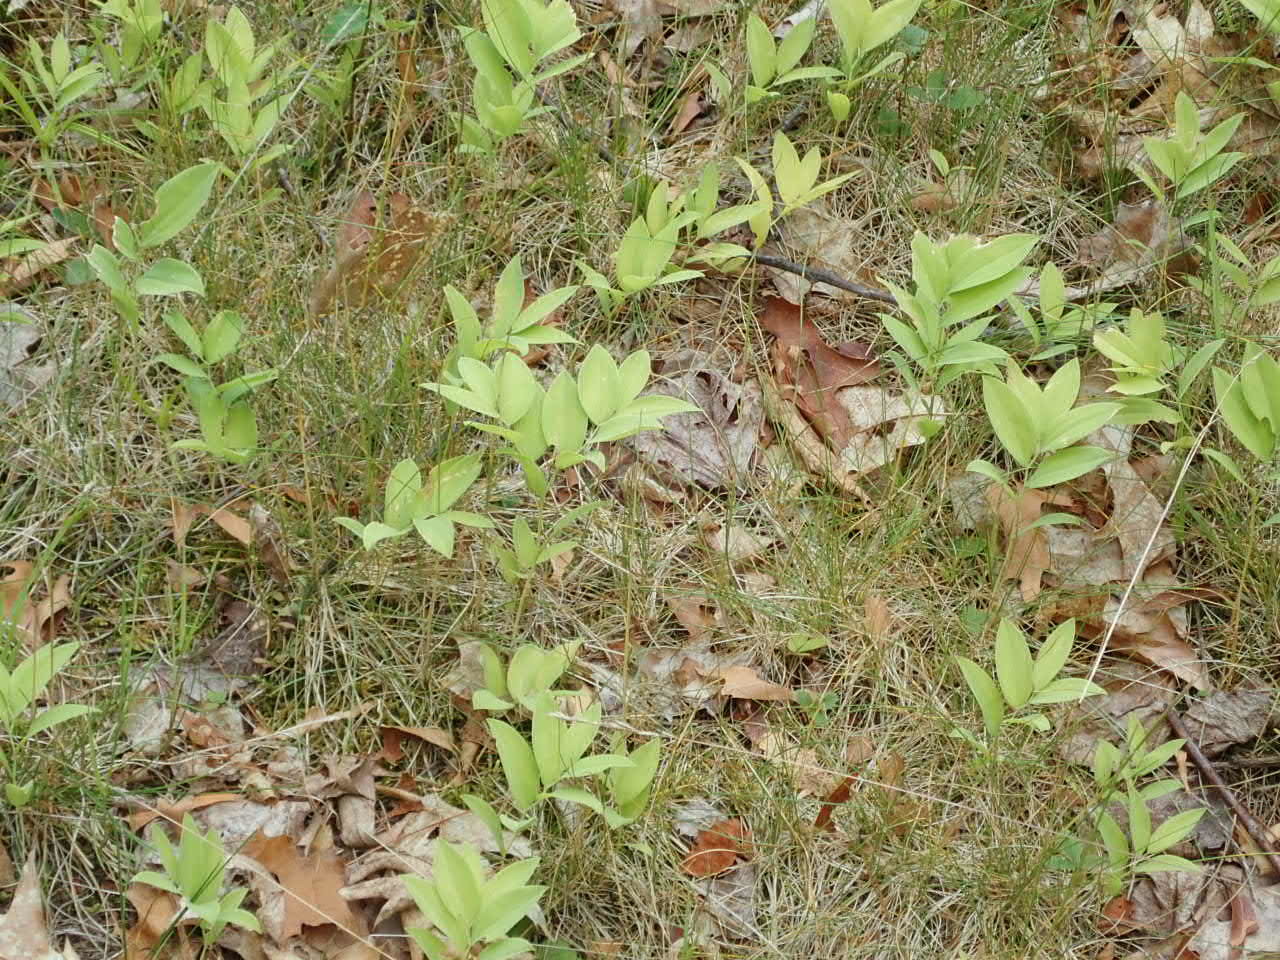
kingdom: Plantae
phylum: Tracheophyta
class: Liliopsida
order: Liliales
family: Colchicaceae
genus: Uvularia
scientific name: Uvularia sessilifolia
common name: Straw-lily
